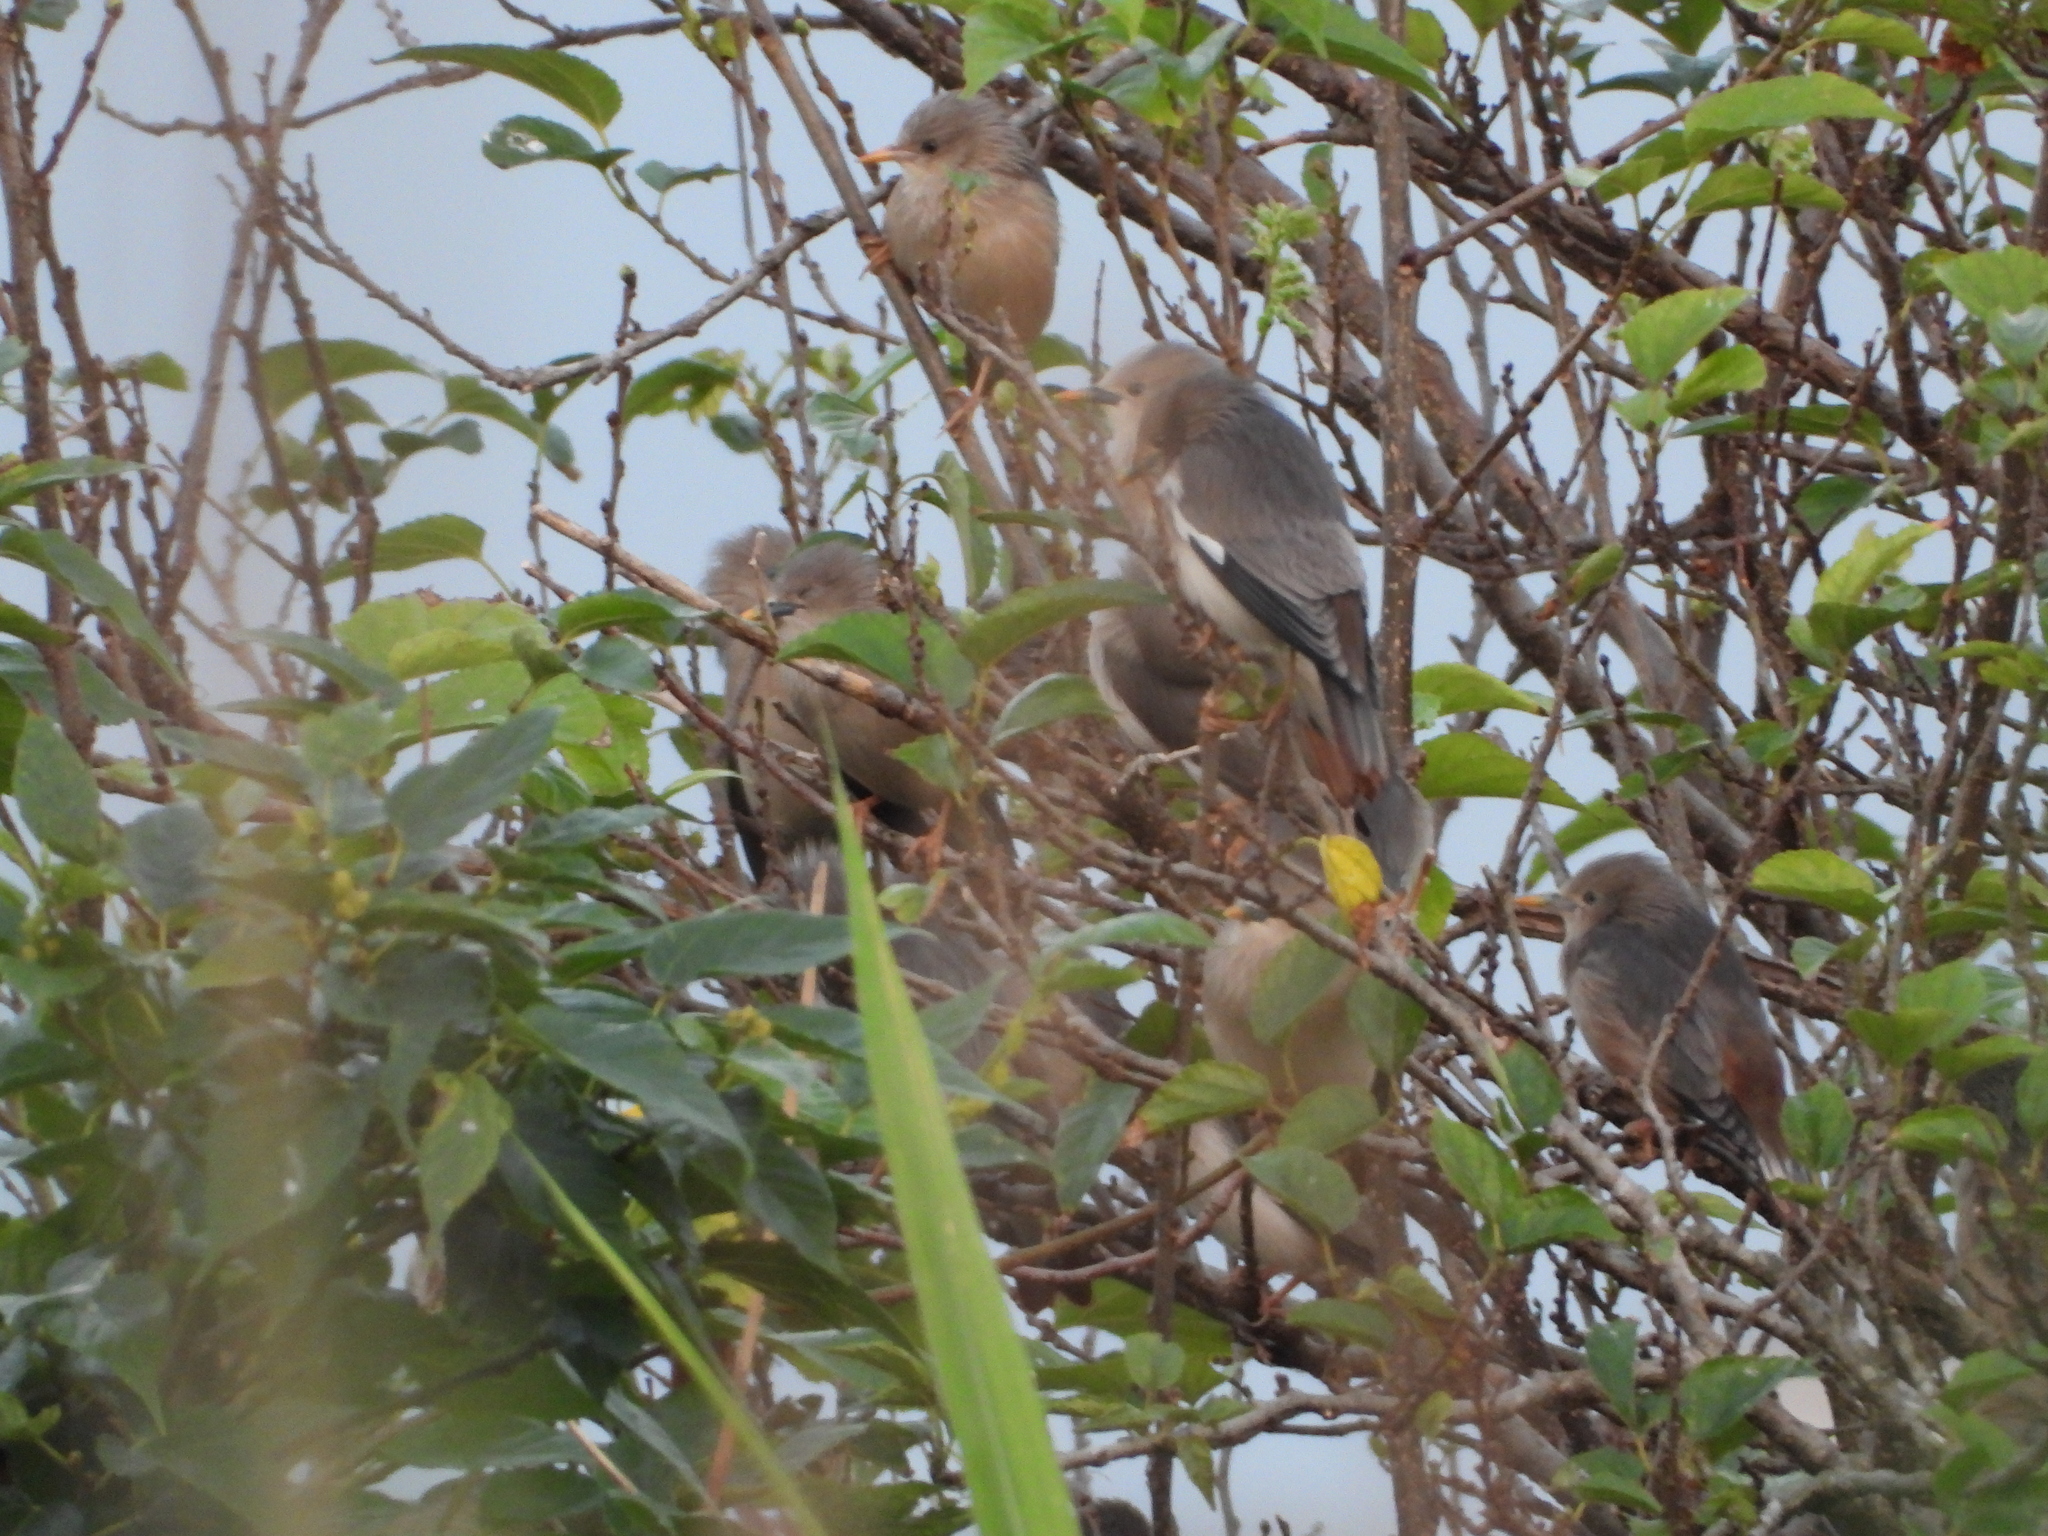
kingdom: Animalia
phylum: Chordata
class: Aves
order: Passeriformes
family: Sturnidae
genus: Sturnia
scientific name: Sturnia malabarica
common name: Chestnut-tailed starling
